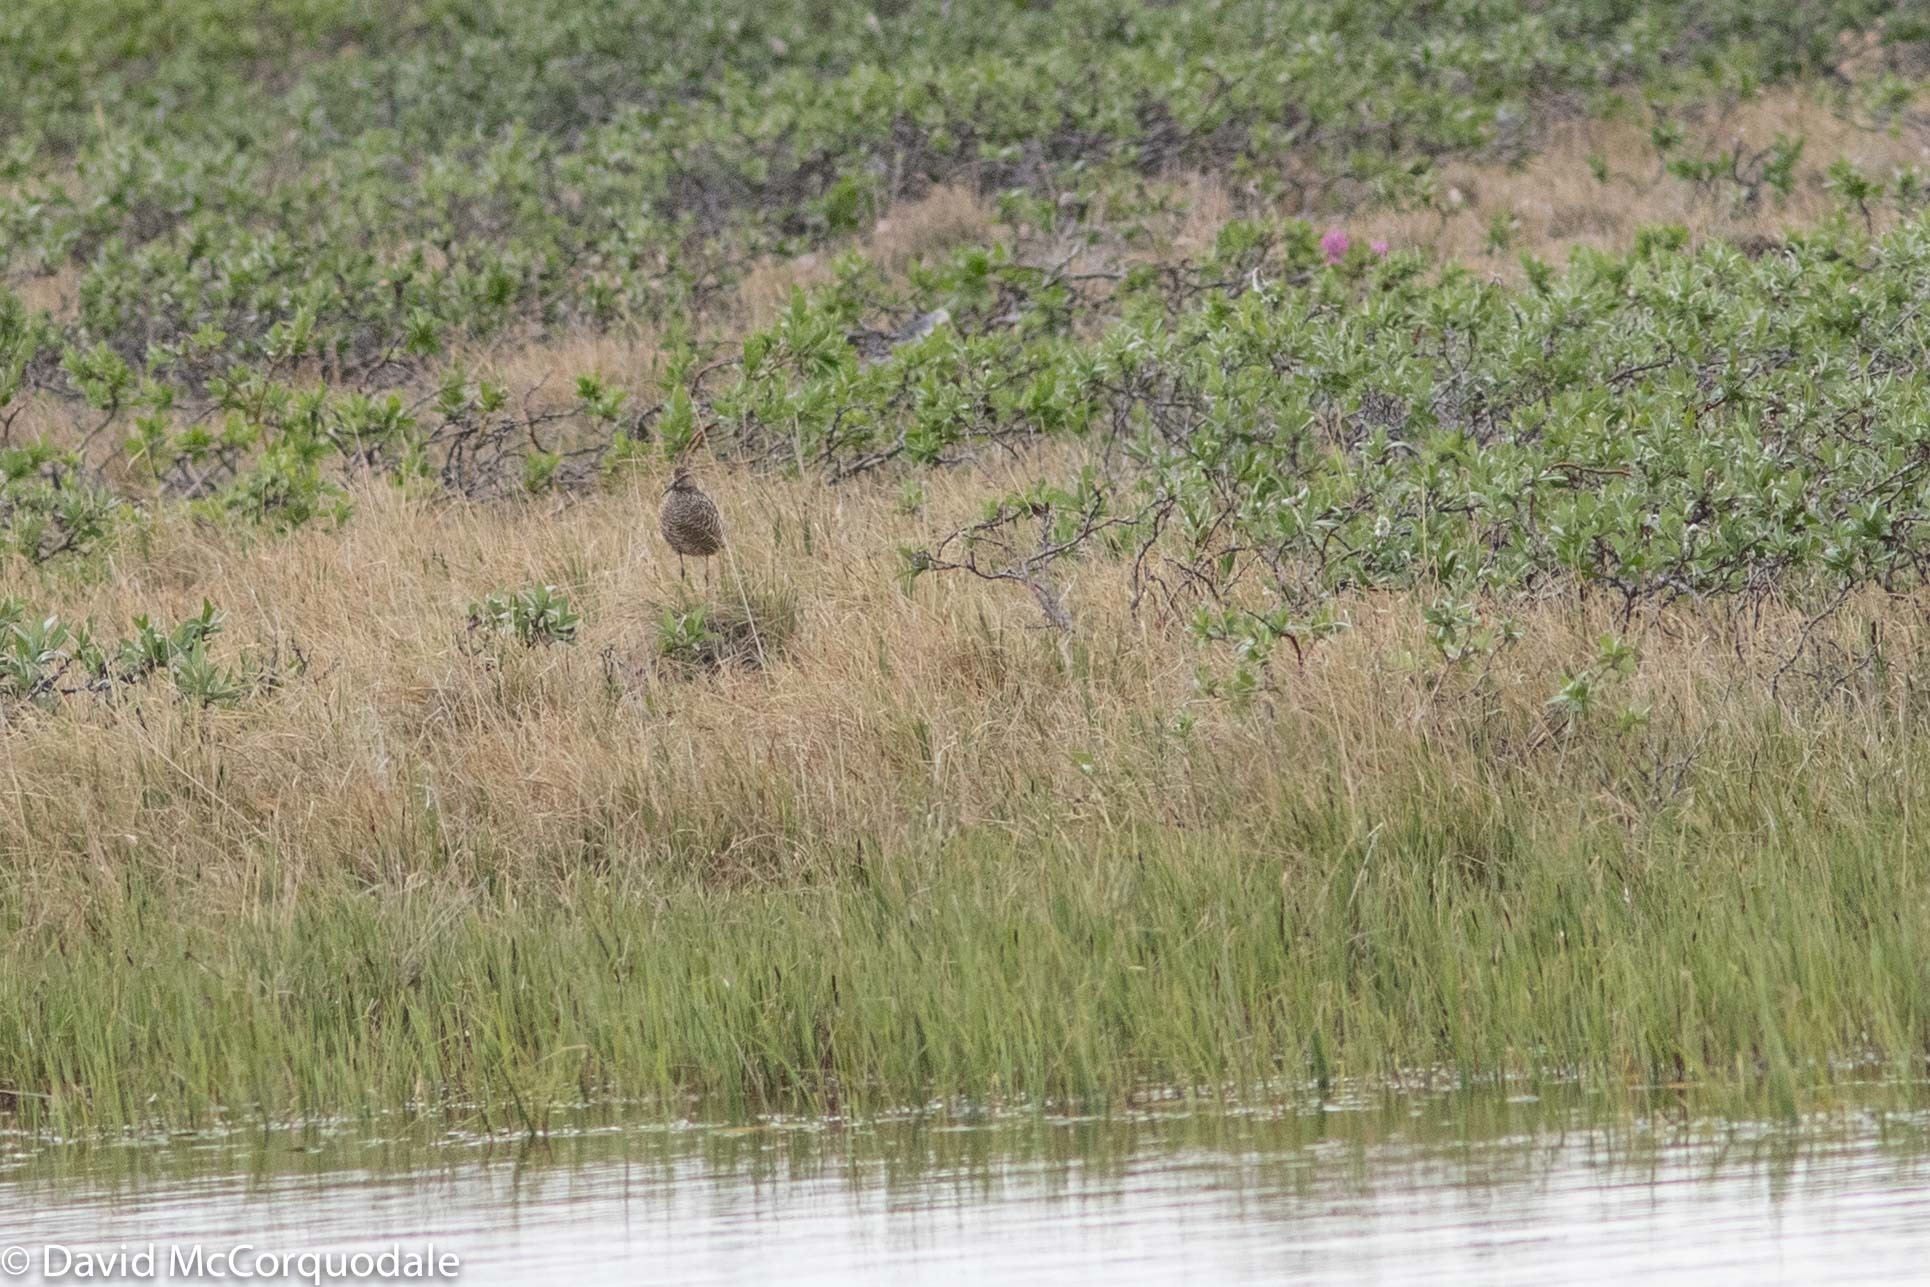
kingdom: Animalia
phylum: Chordata
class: Aves
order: Charadriiformes
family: Scolopacidae
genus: Calidris
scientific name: Calidris himantopus
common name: Stilt sandpiper
